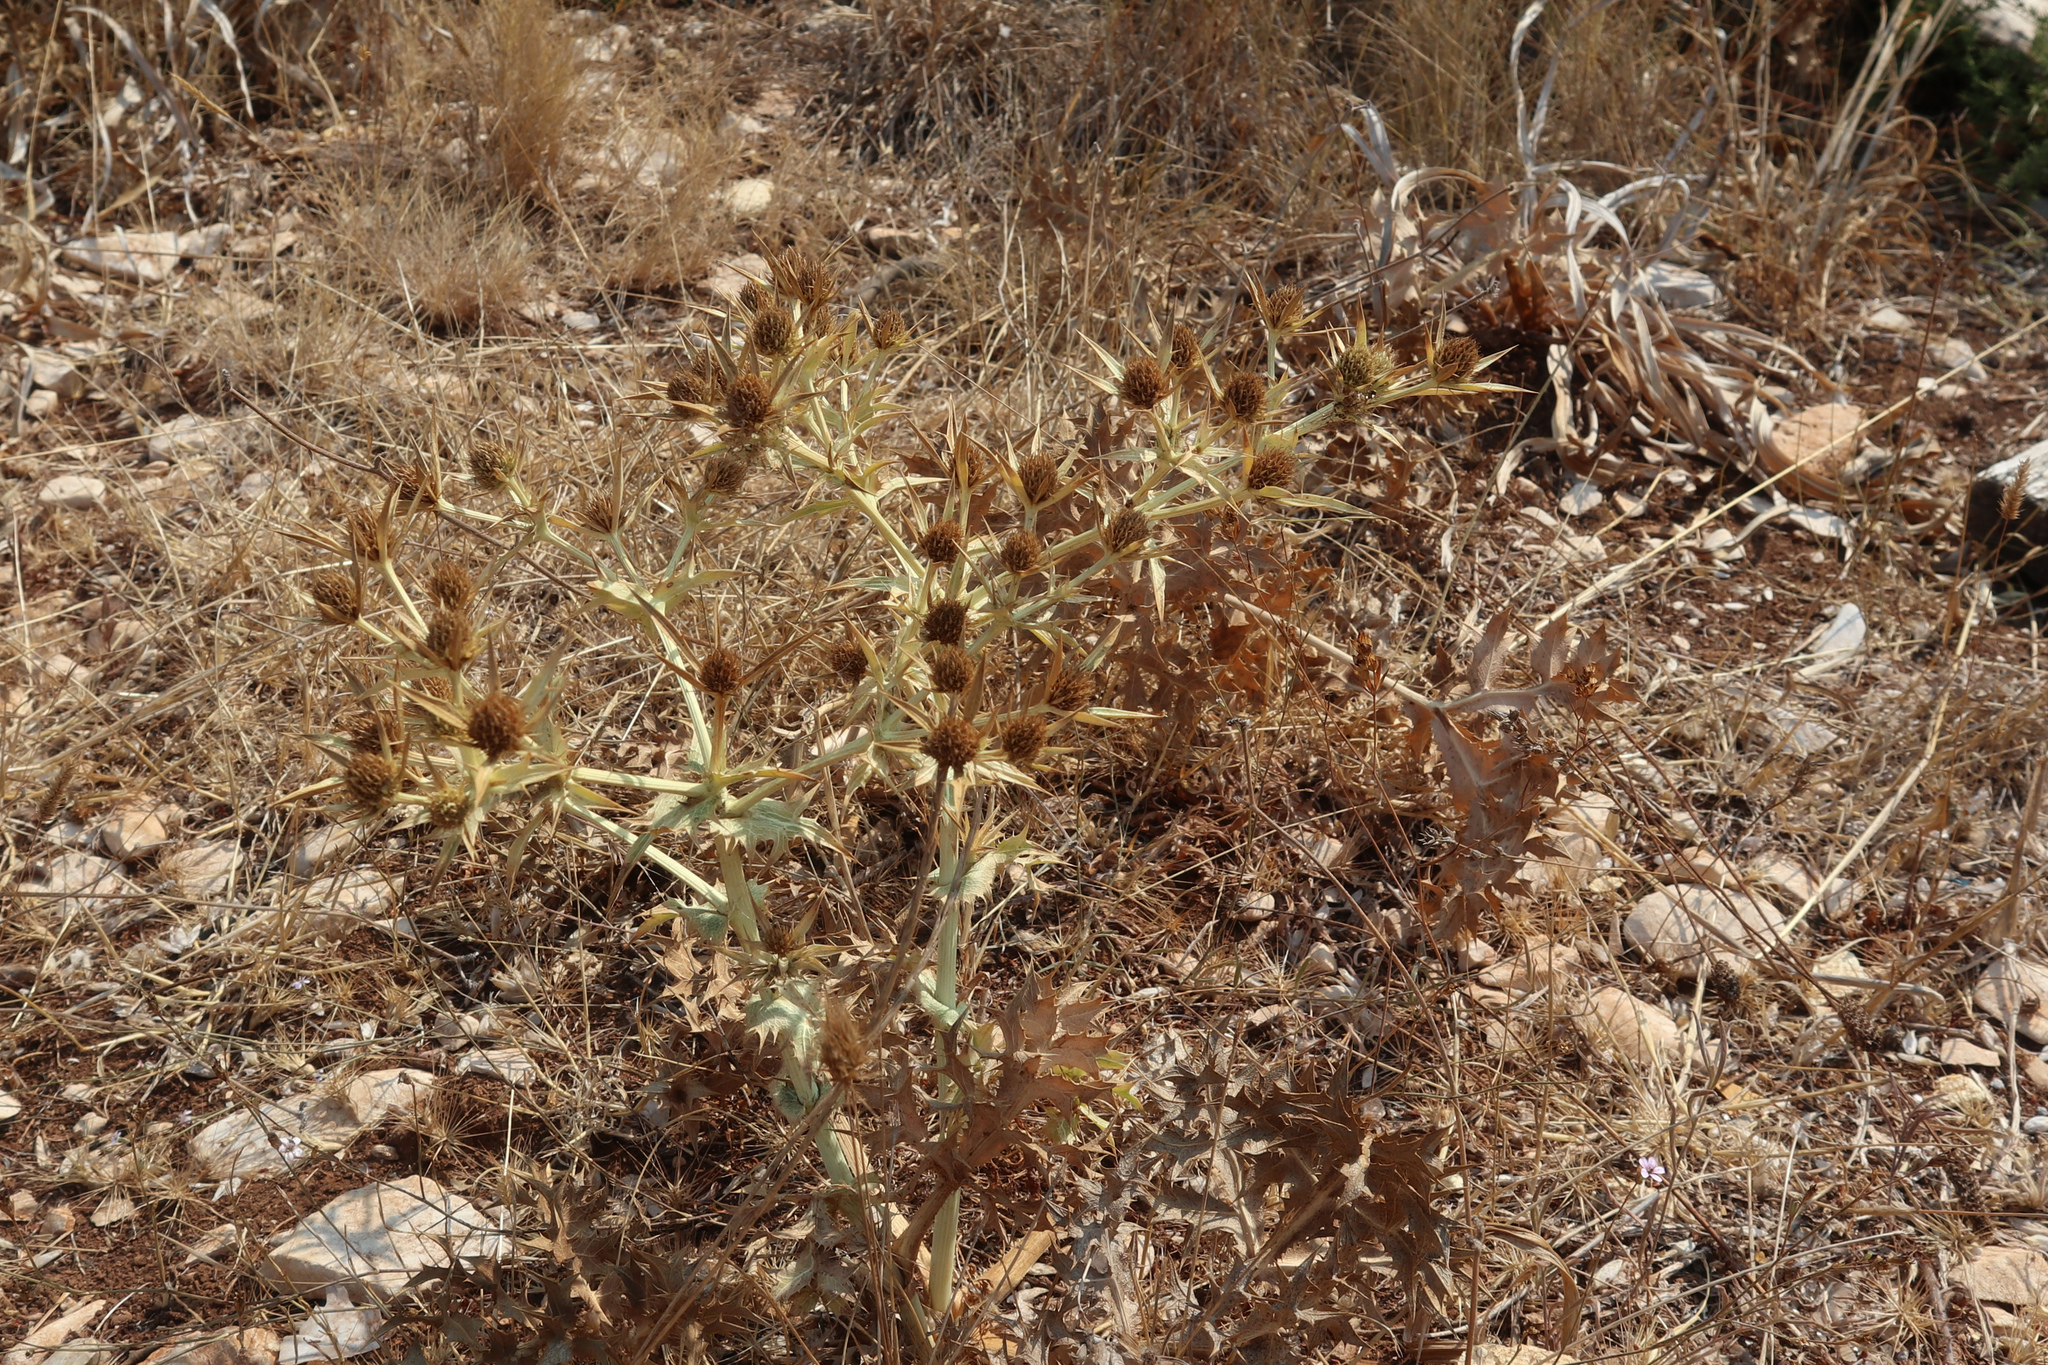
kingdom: Plantae
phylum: Tracheophyta
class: Magnoliopsida
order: Apiales
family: Apiaceae
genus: Eryngium
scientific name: Eryngium campestre
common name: Field eryngo
